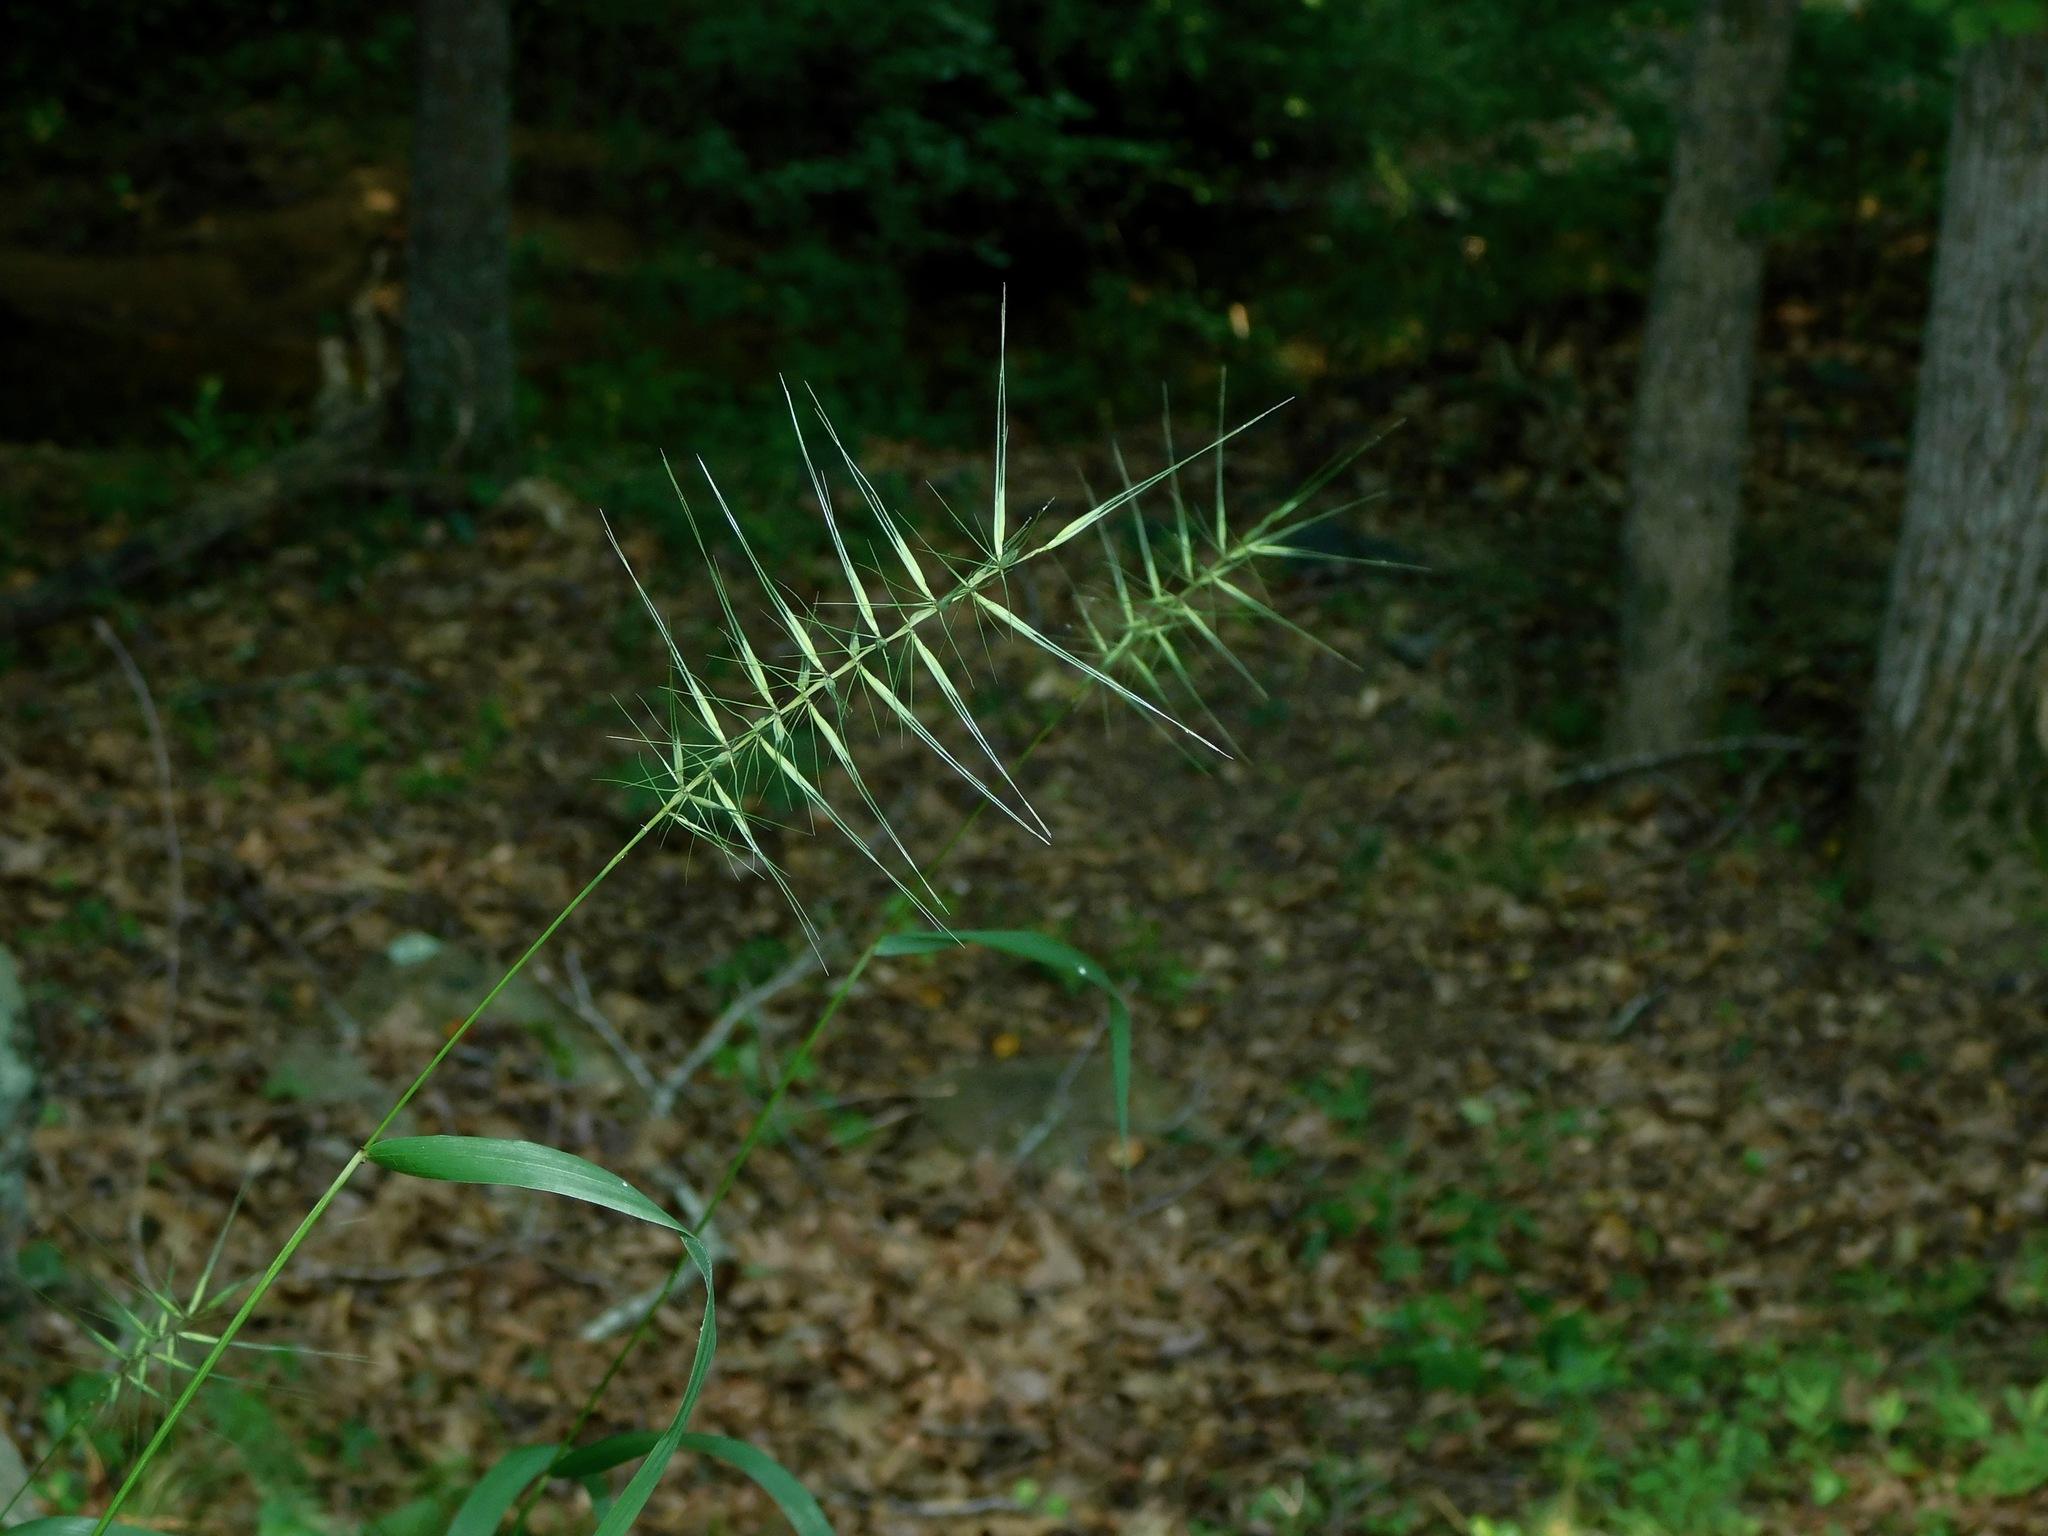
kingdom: Plantae
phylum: Tracheophyta
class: Liliopsida
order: Poales
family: Poaceae
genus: Elymus
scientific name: Elymus hystrix
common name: Bottlebrush grass
